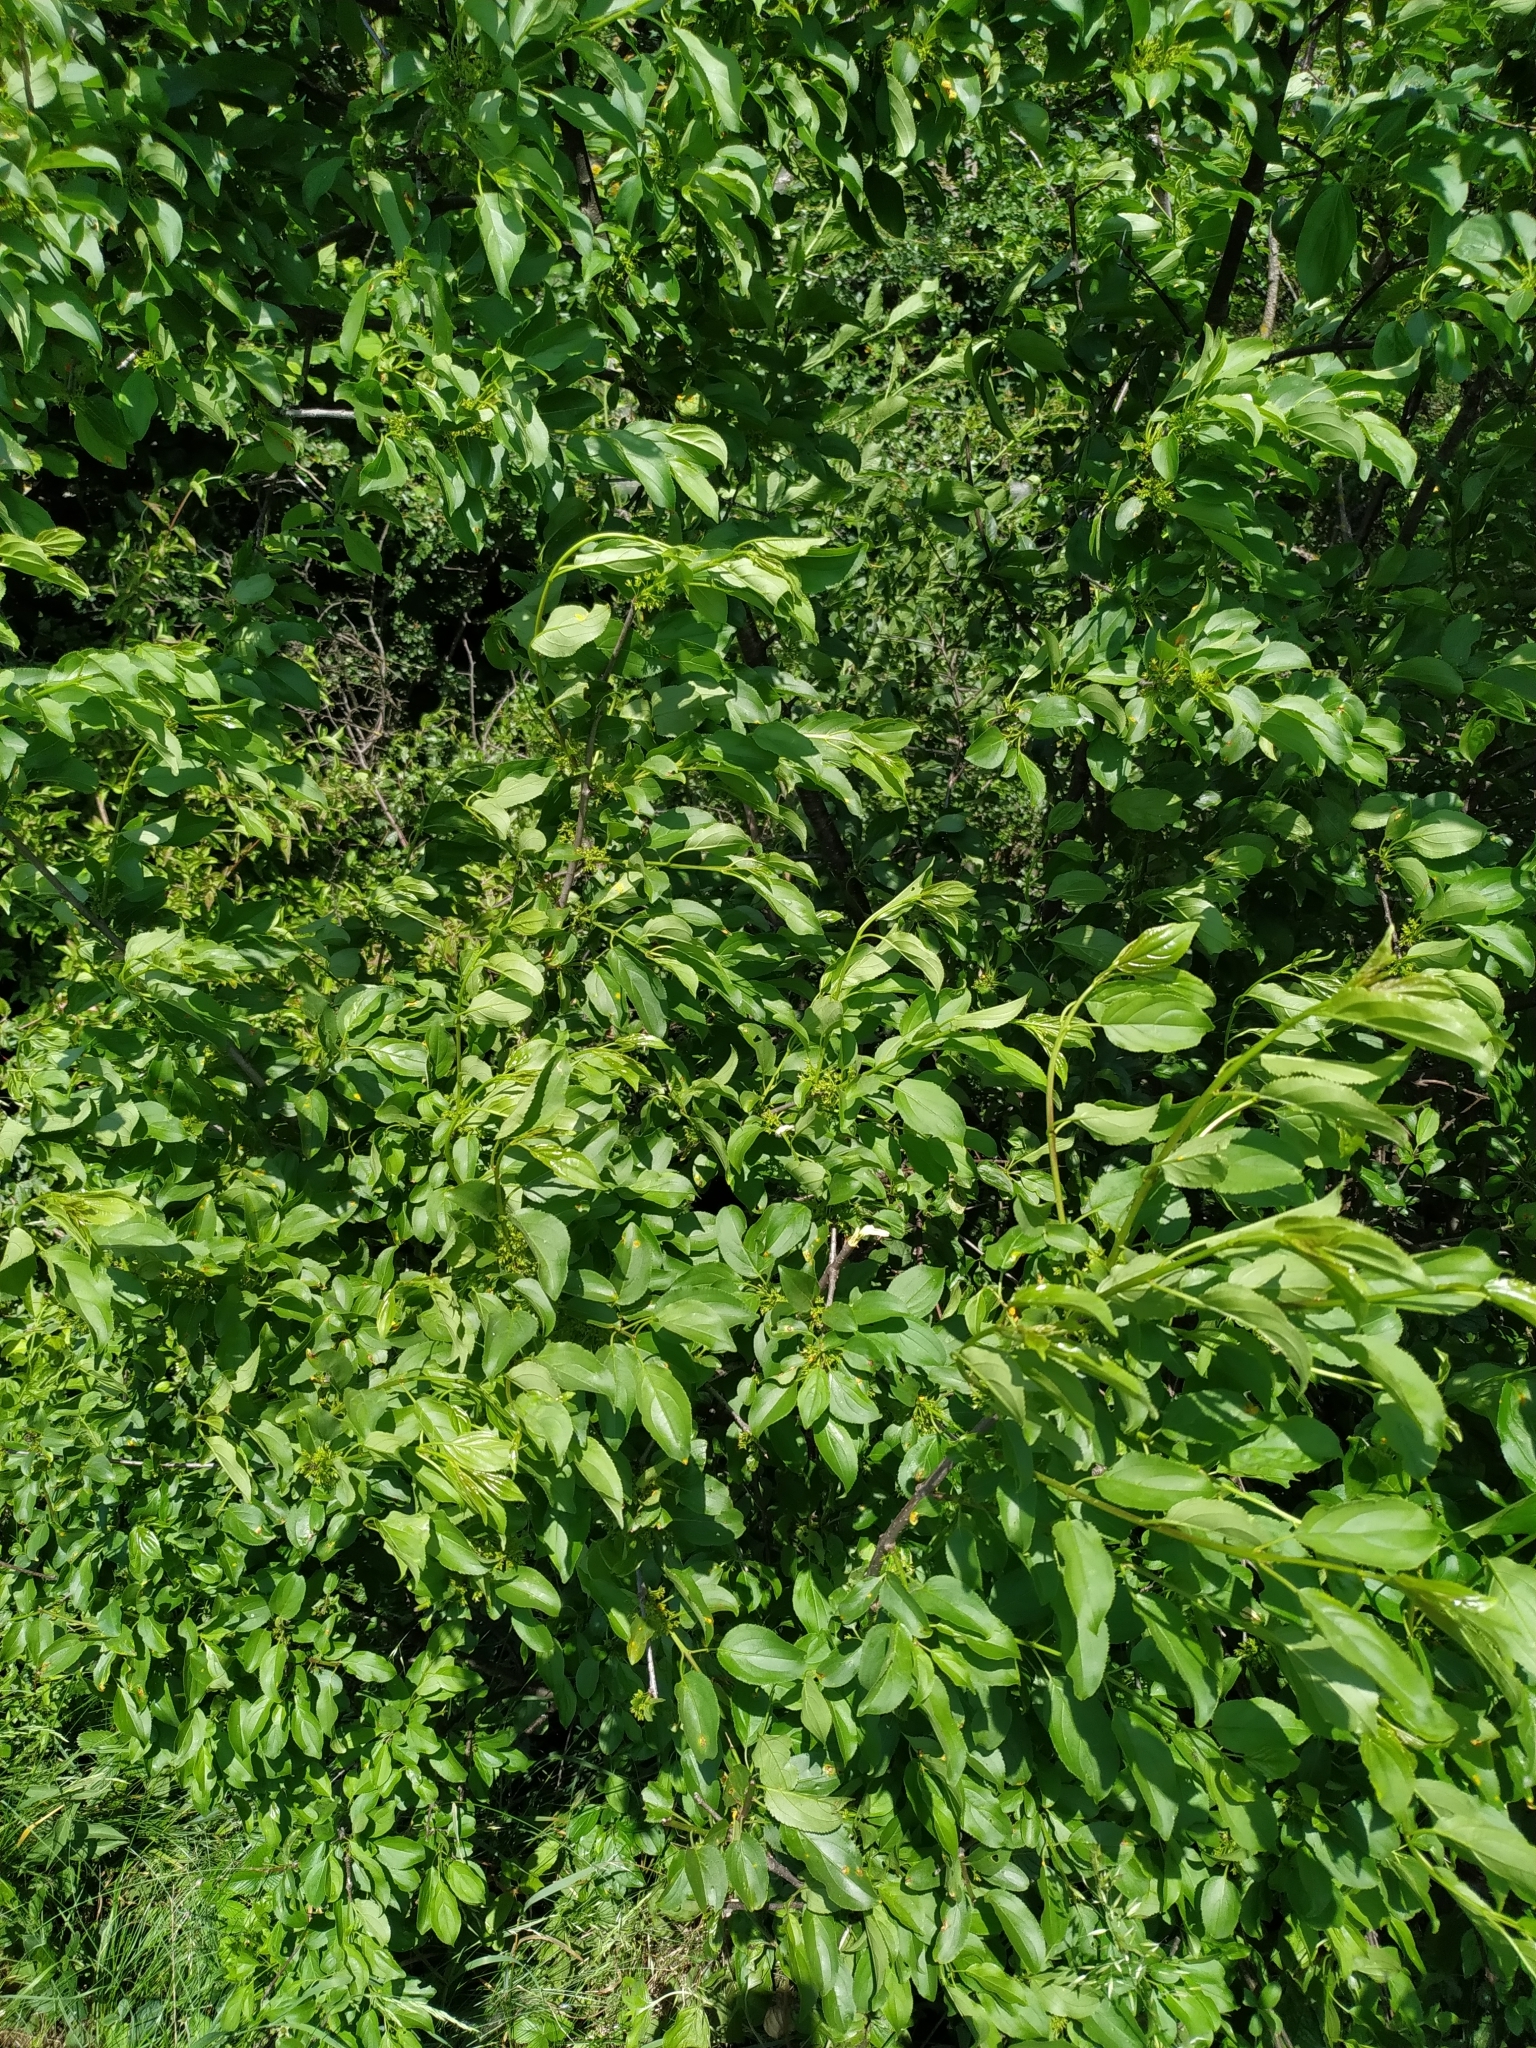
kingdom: Plantae
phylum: Tracheophyta
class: Magnoliopsida
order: Rosales
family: Rhamnaceae
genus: Rhamnus
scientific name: Rhamnus cathartica
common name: Common buckthorn
